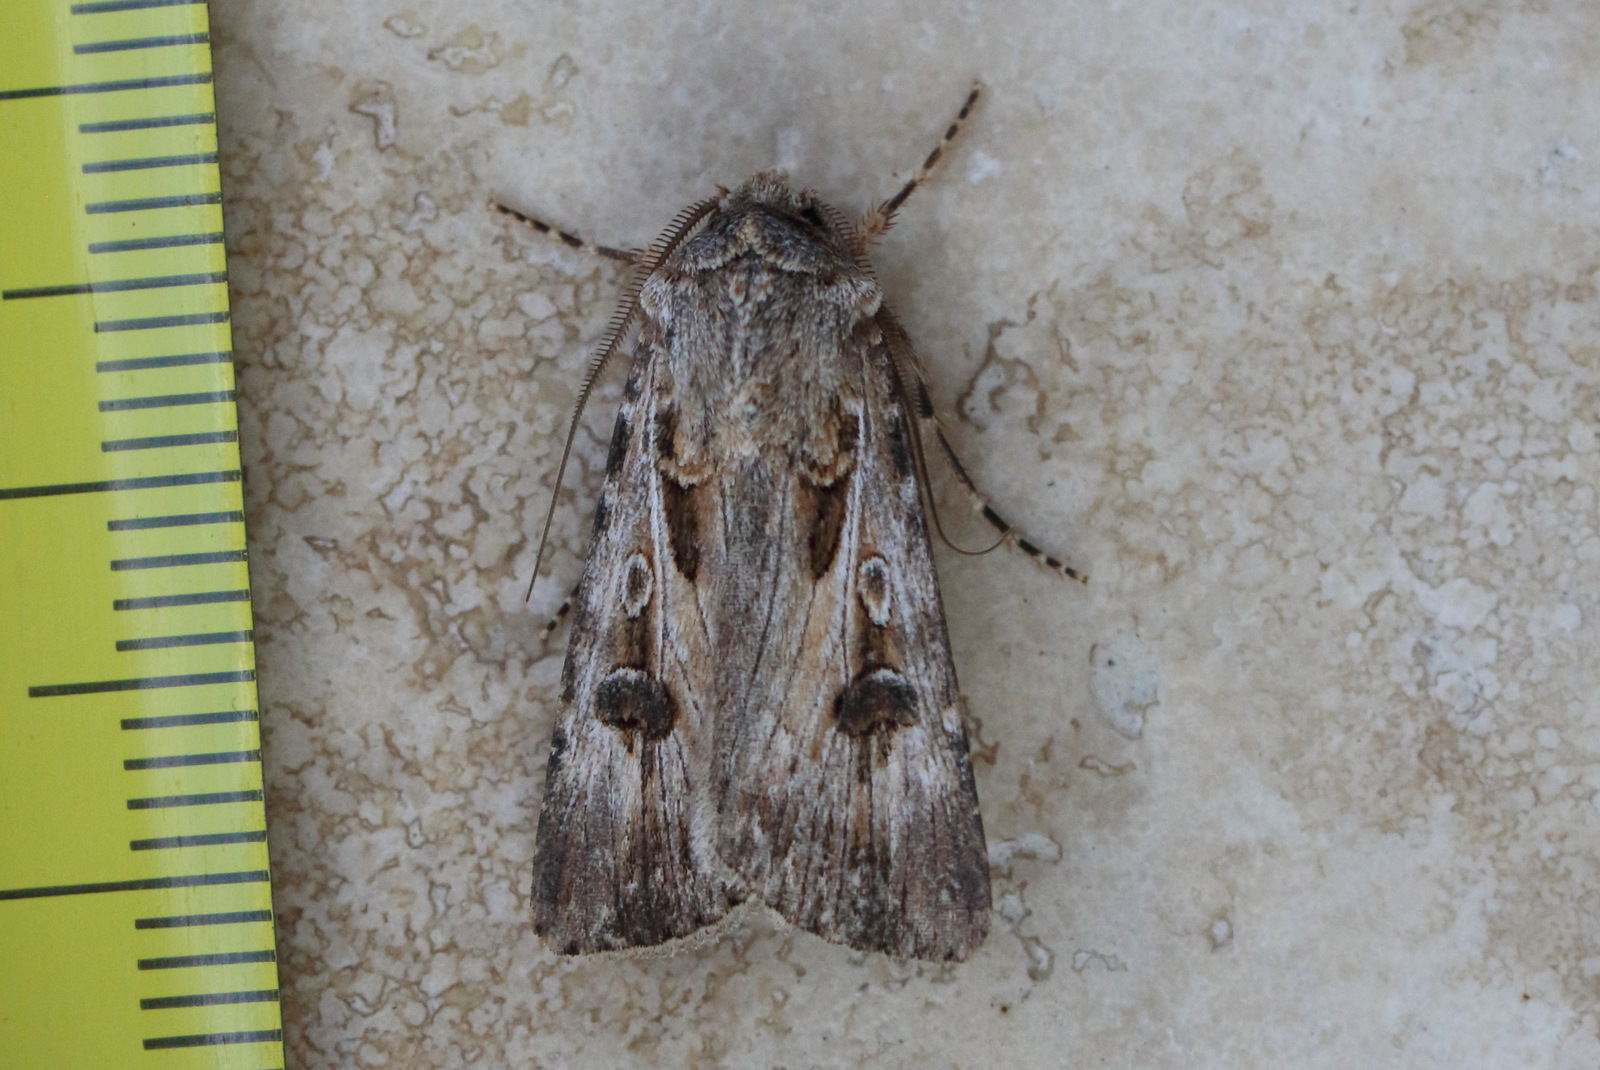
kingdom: Animalia
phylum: Arthropoda
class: Insecta
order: Lepidoptera
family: Noctuidae
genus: Agrotis
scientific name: Agrotis munda
